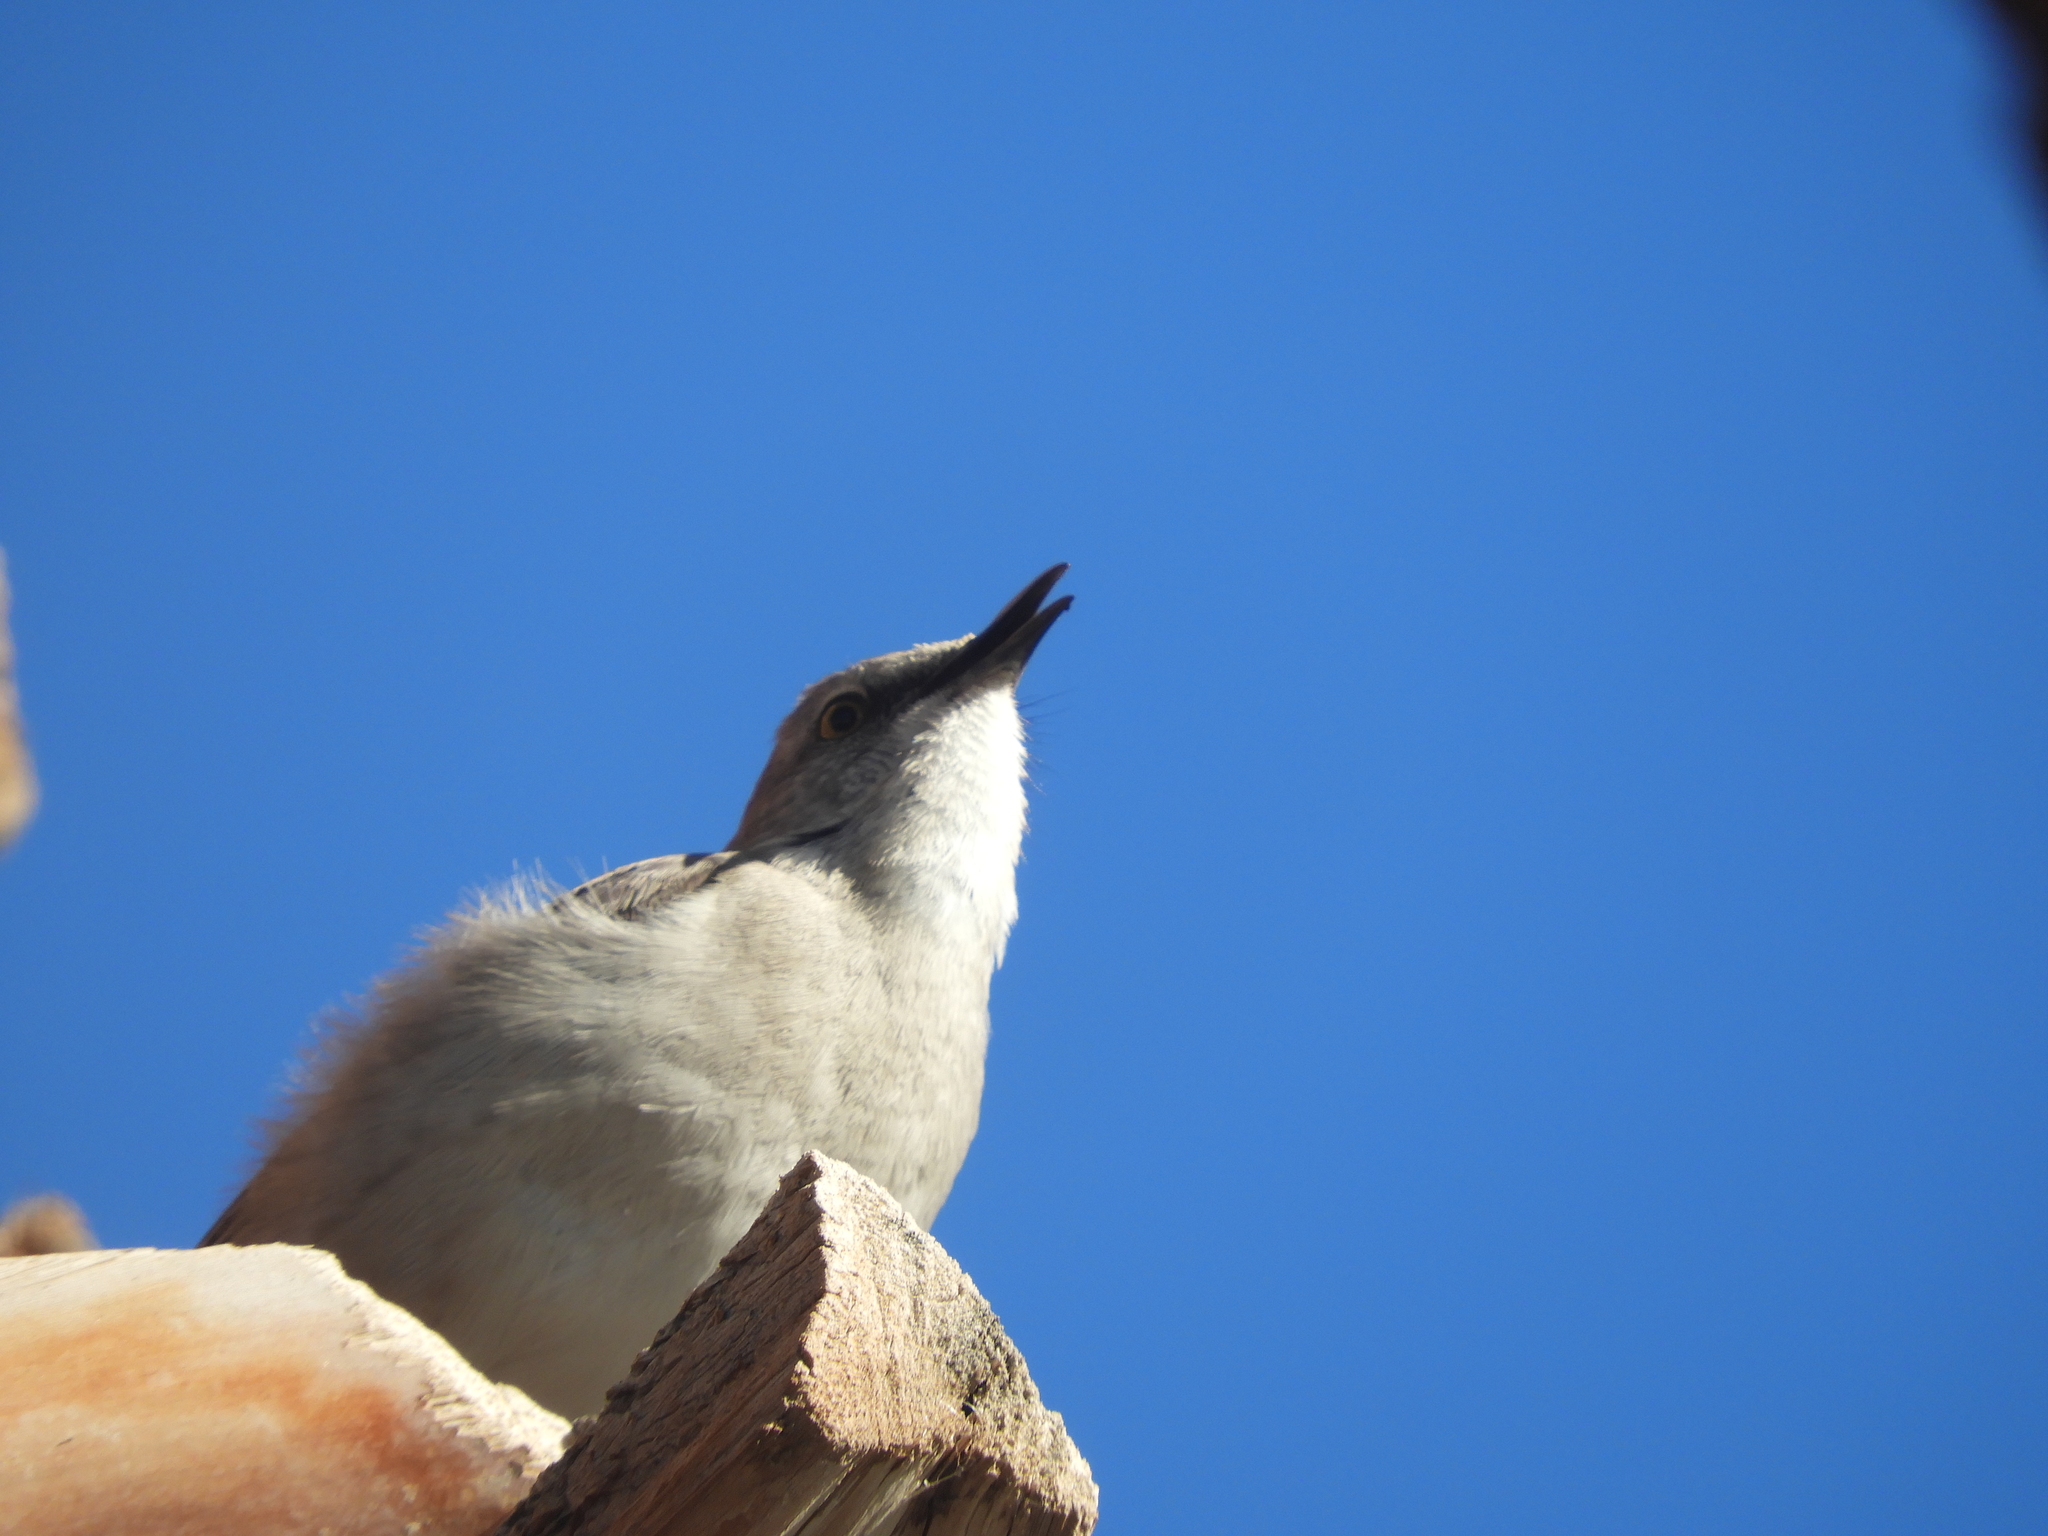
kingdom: Animalia
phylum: Chordata
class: Aves
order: Passeriformes
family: Mimidae
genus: Mimus
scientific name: Mimus polyglottos
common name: Northern mockingbird
